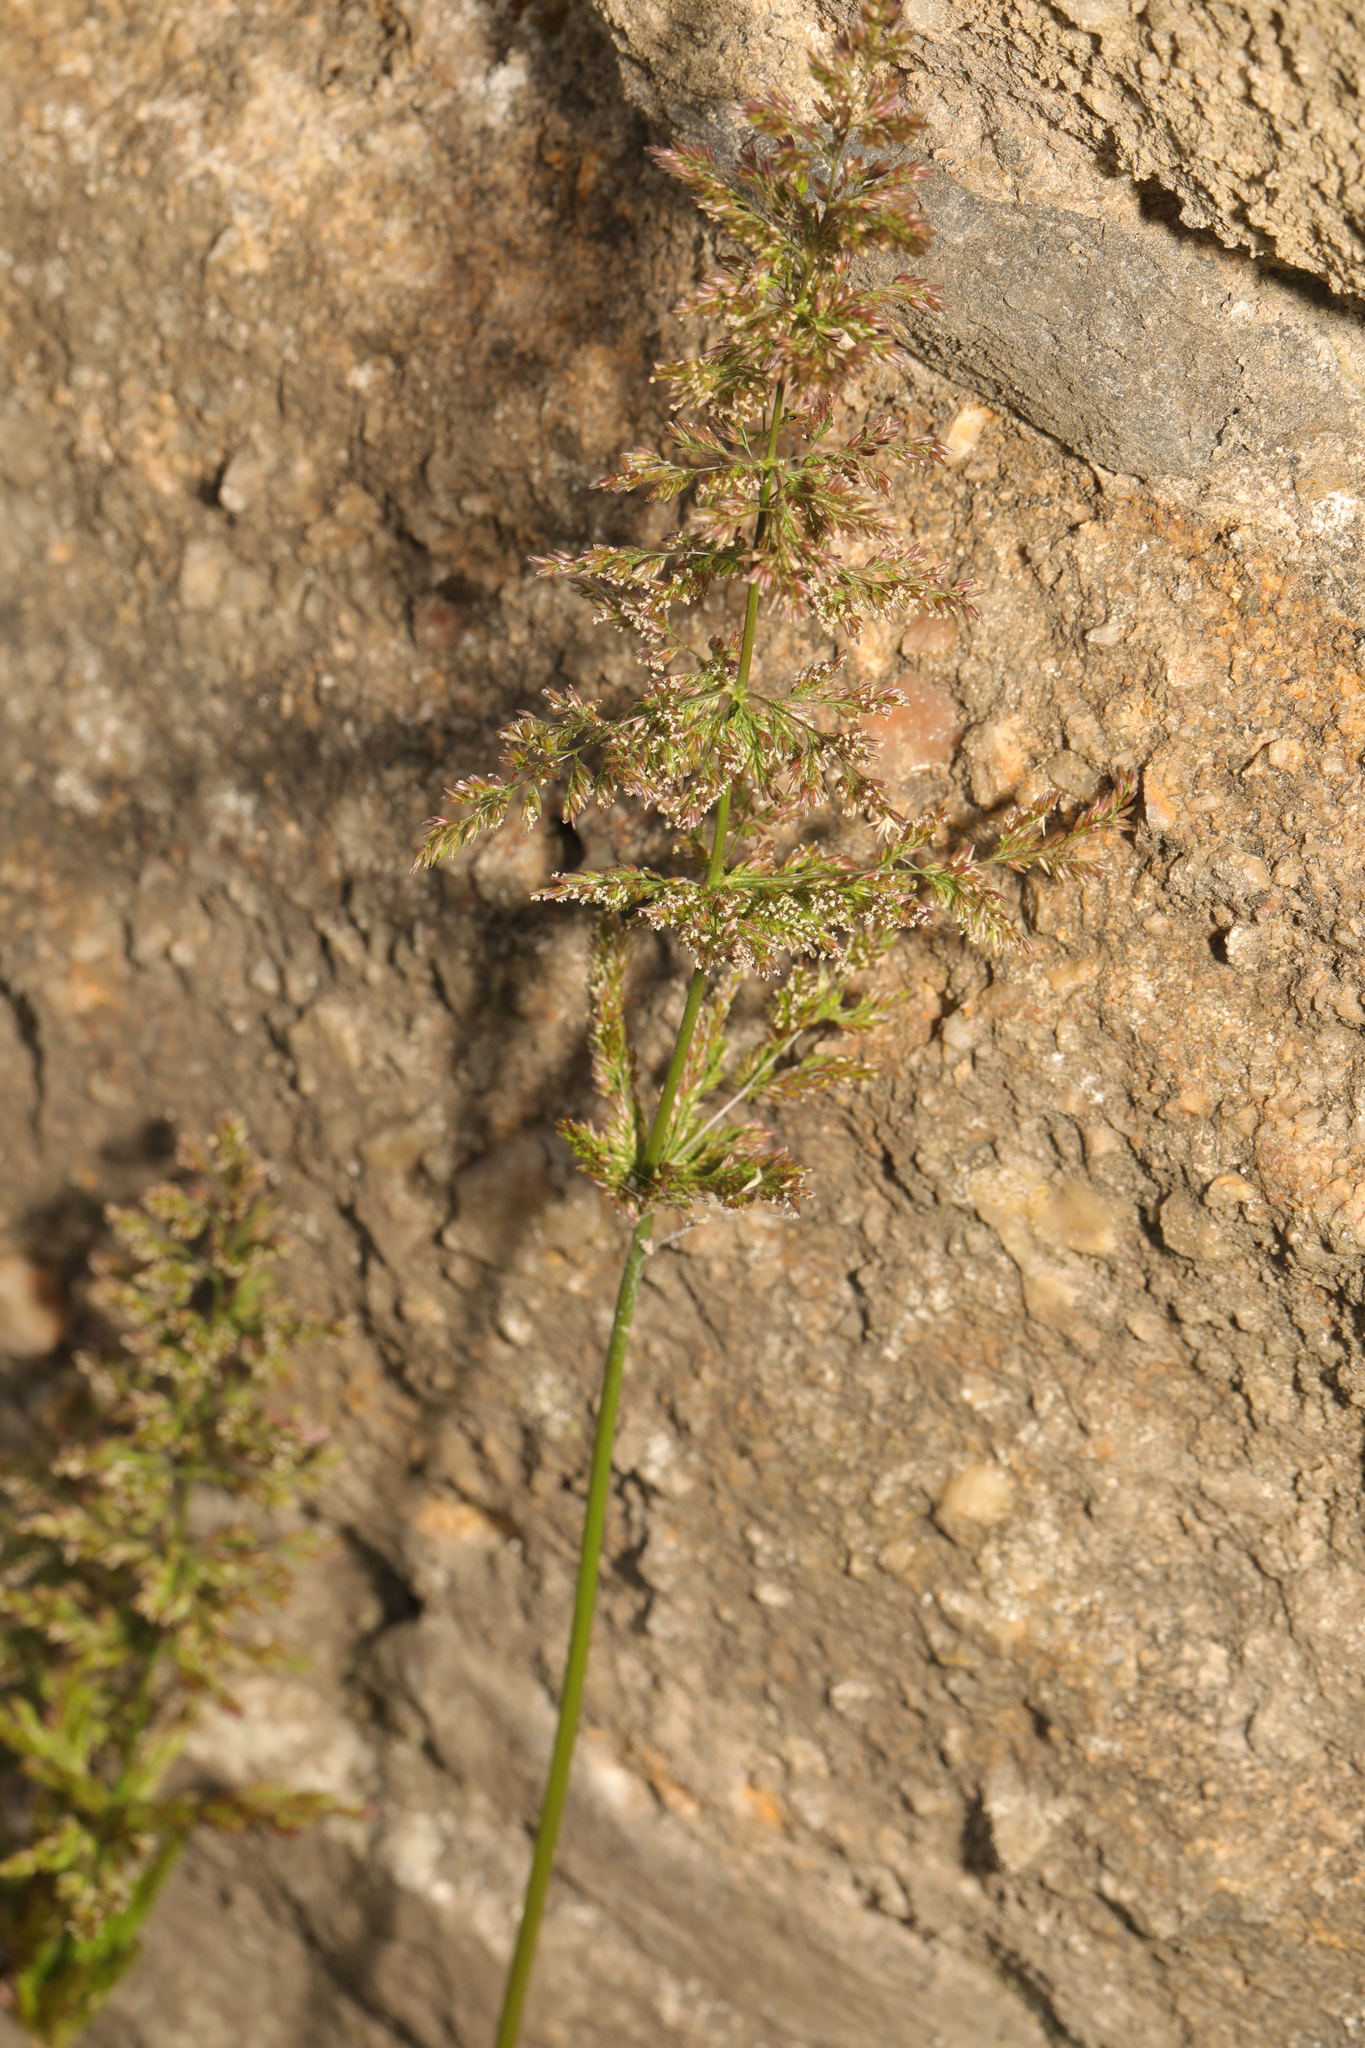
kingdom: Plantae
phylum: Tracheophyta
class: Liliopsida
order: Poales
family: Poaceae
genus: Polypogon
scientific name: Polypogon viridis
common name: Water bent
